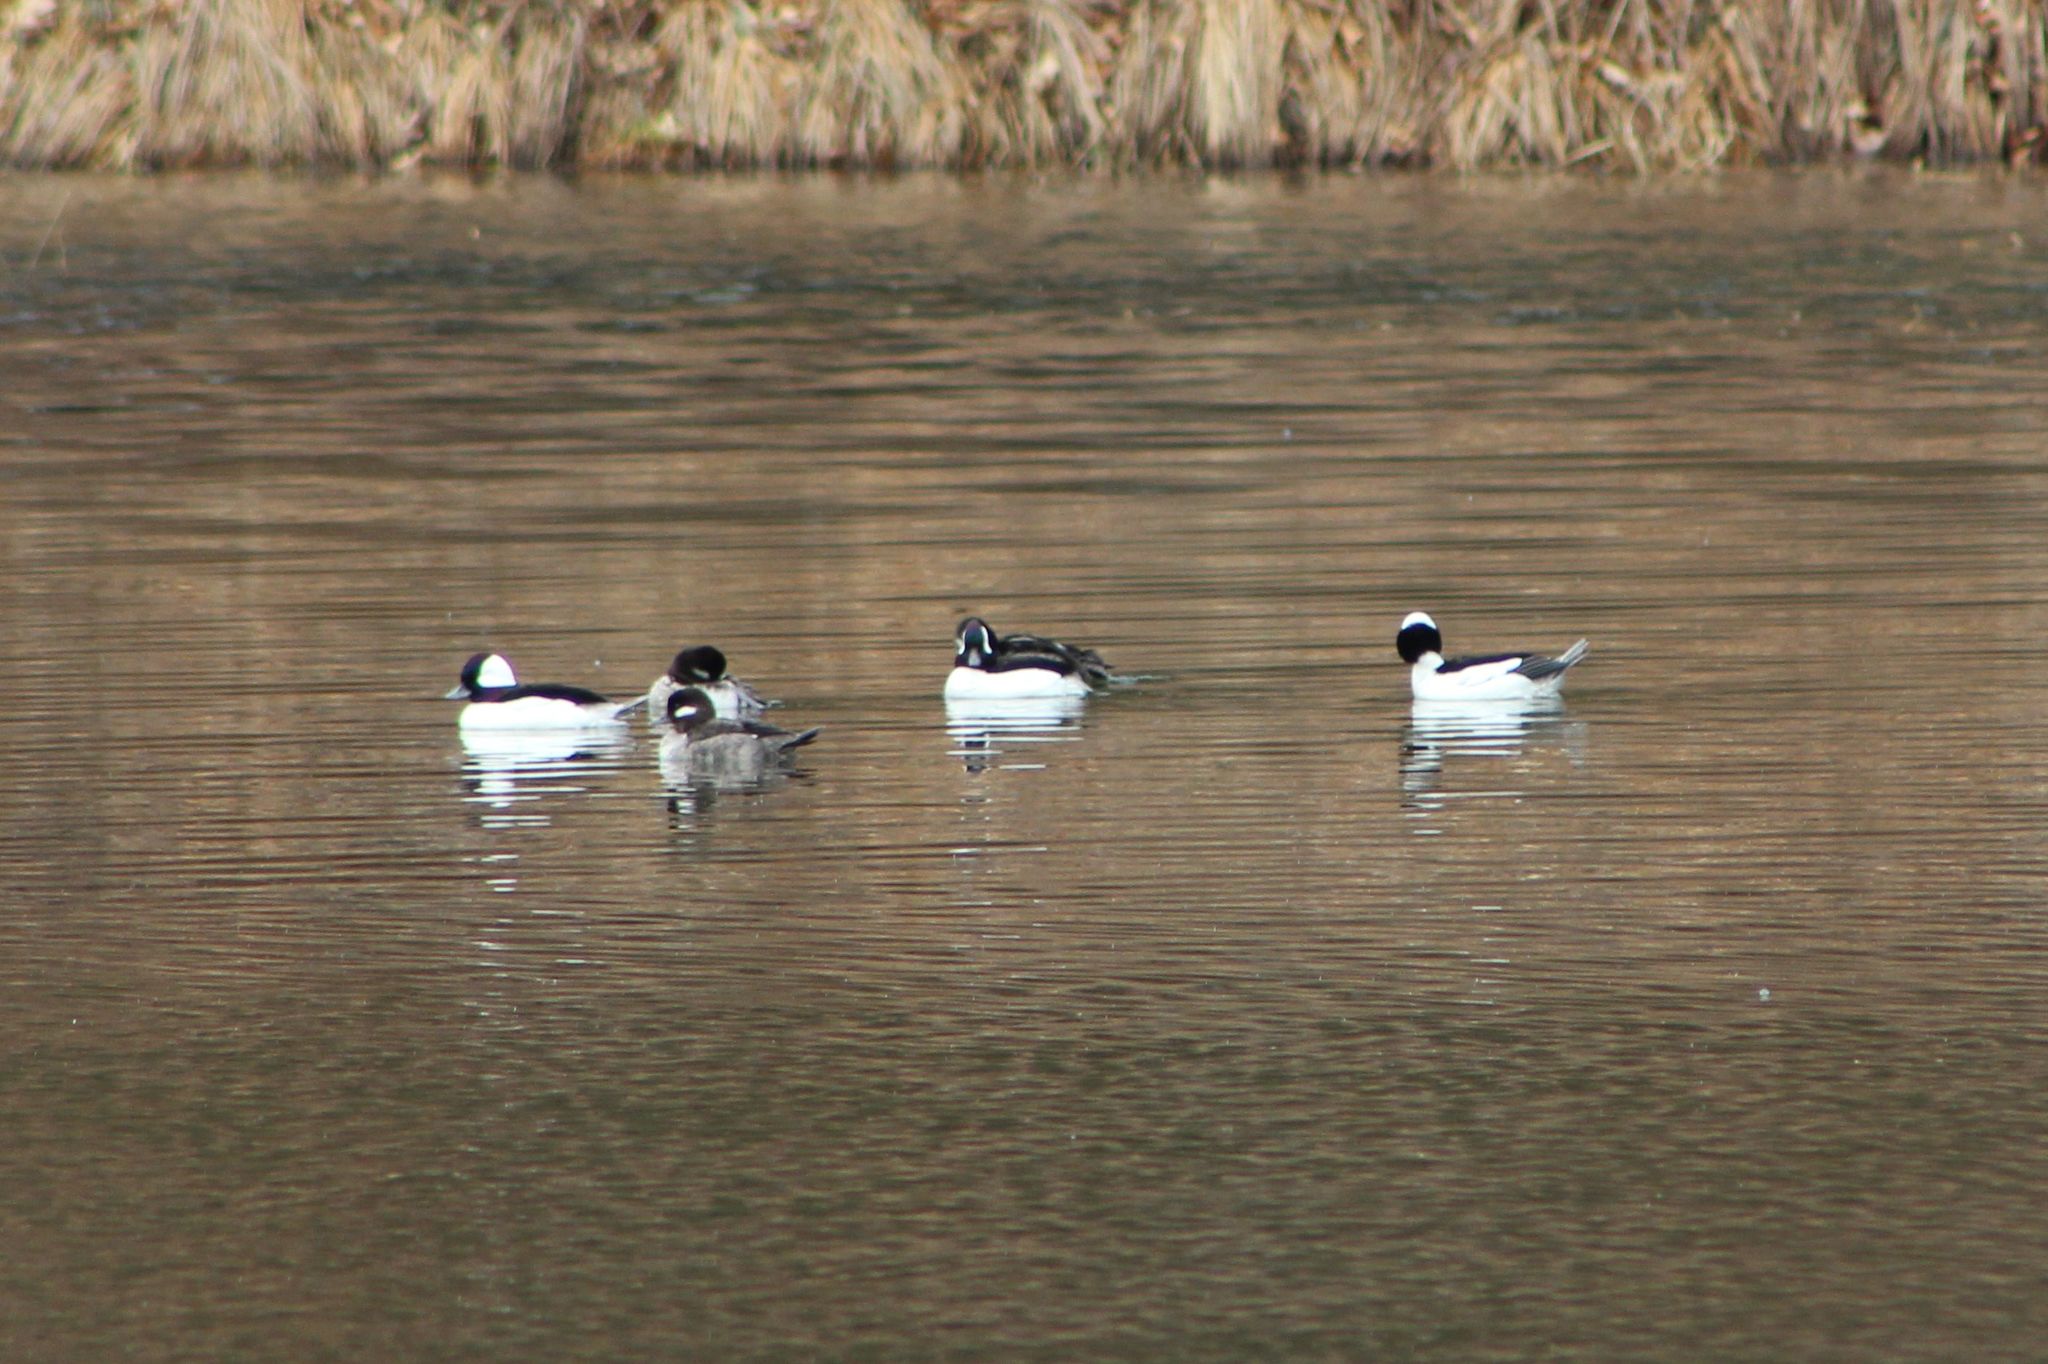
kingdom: Animalia
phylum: Chordata
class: Aves
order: Anseriformes
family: Anatidae
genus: Bucephala
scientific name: Bucephala albeola
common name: Bufflehead
